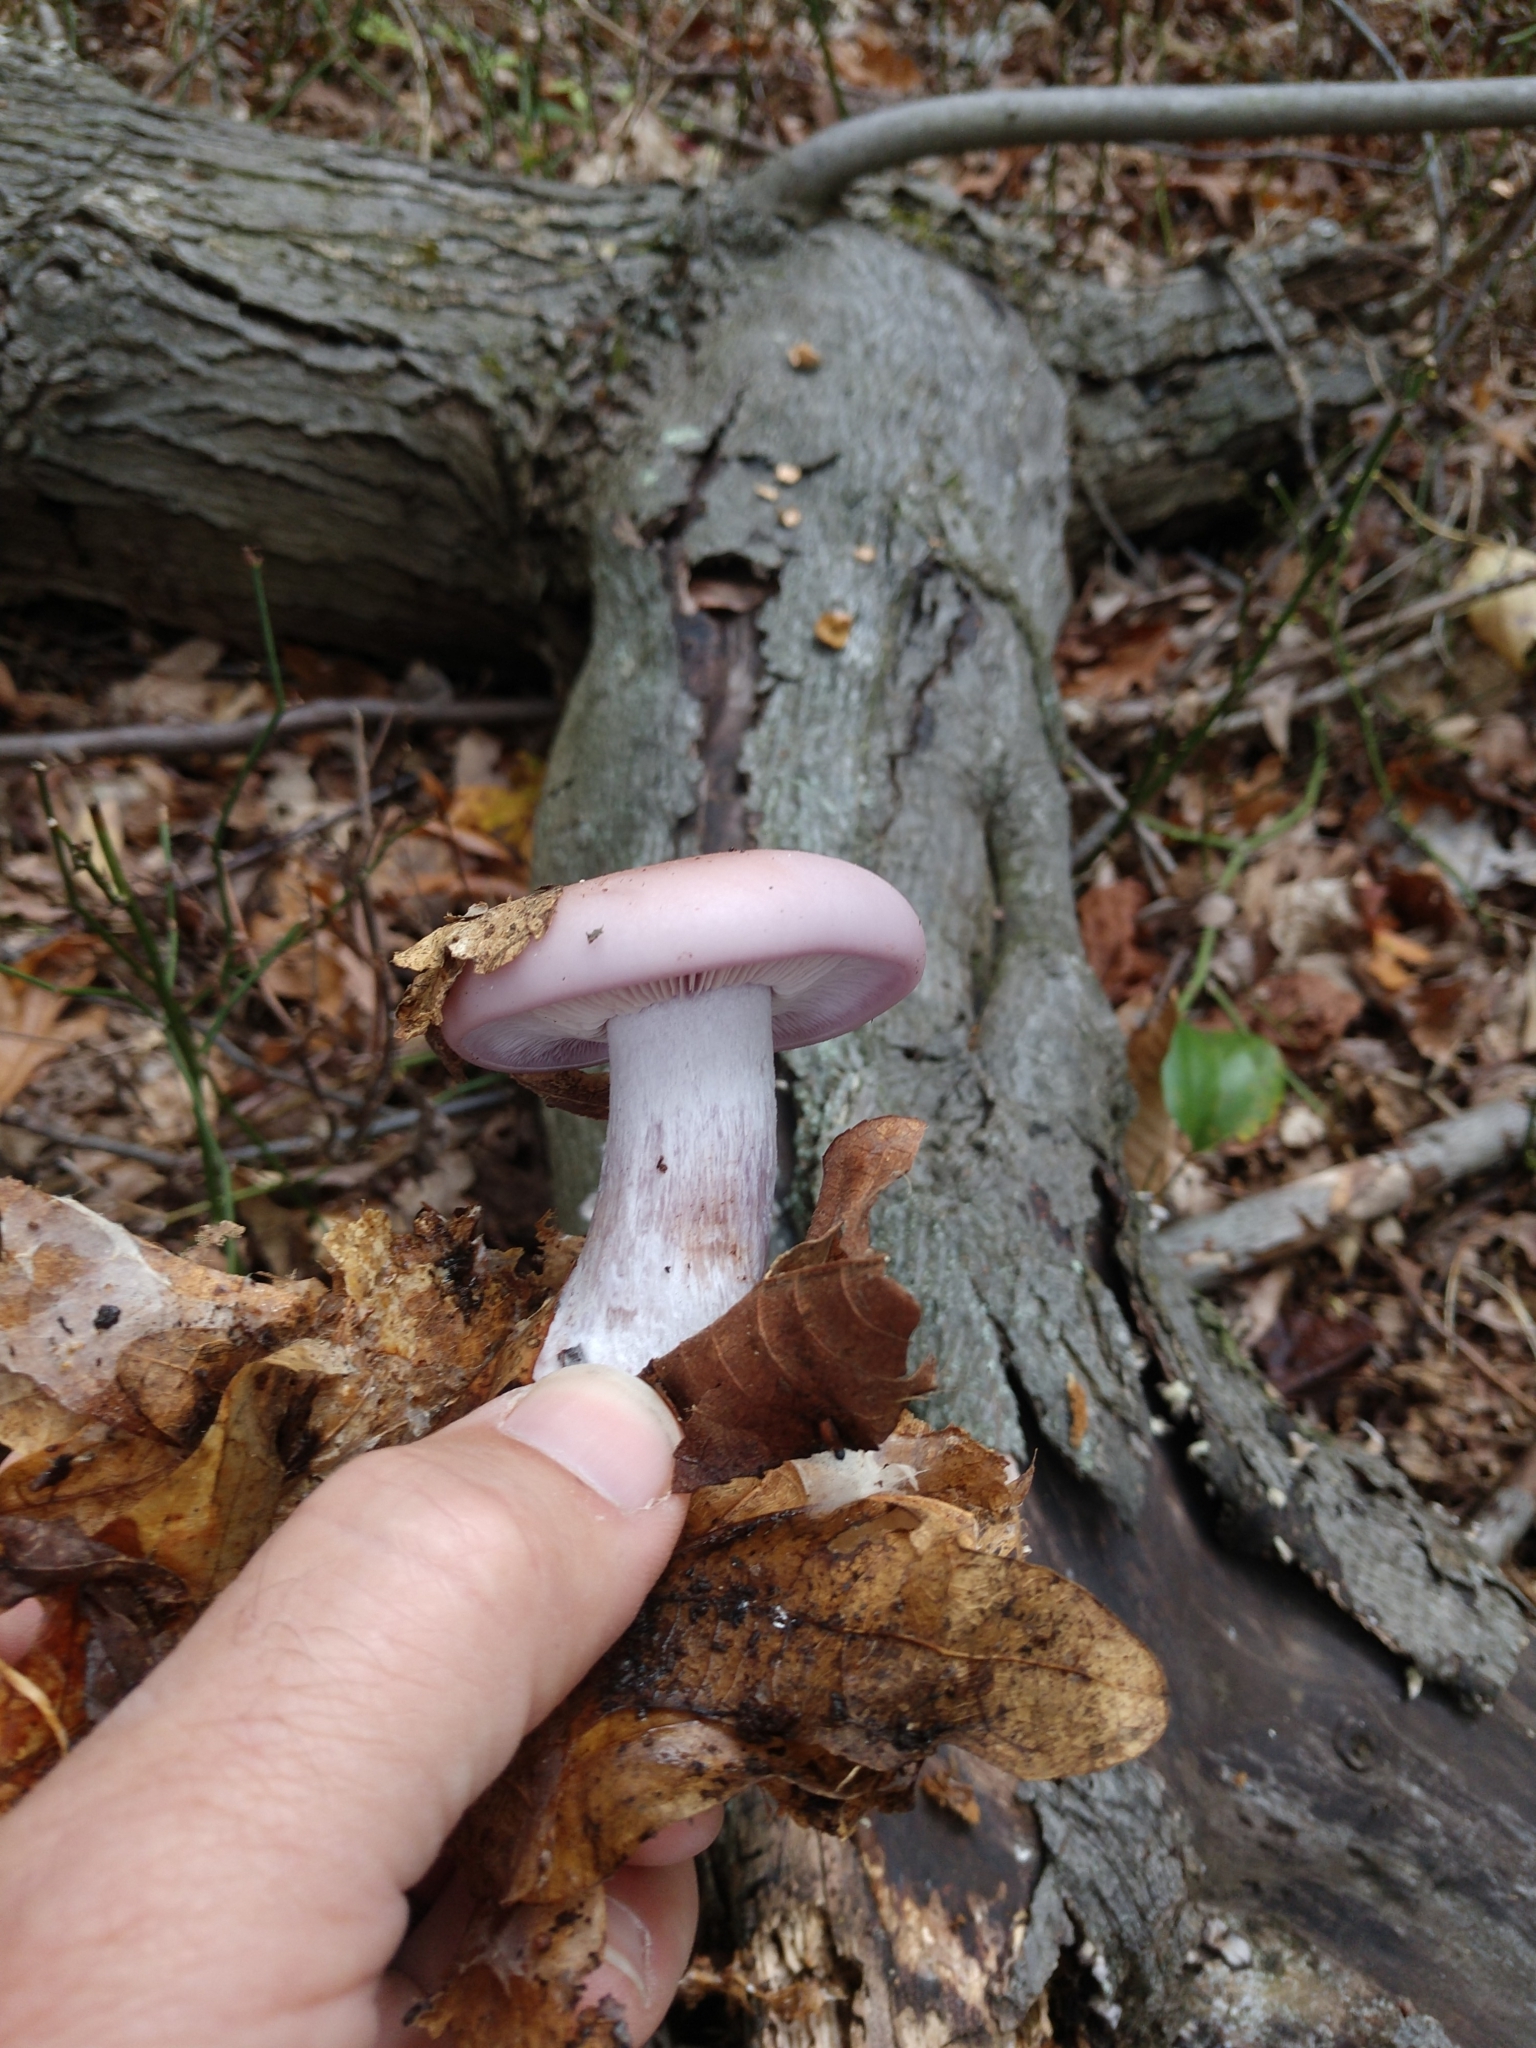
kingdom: Fungi
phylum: Basidiomycota
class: Agaricomycetes
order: Agaricales
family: Tricholomataceae
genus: Collybia
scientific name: Collybia
